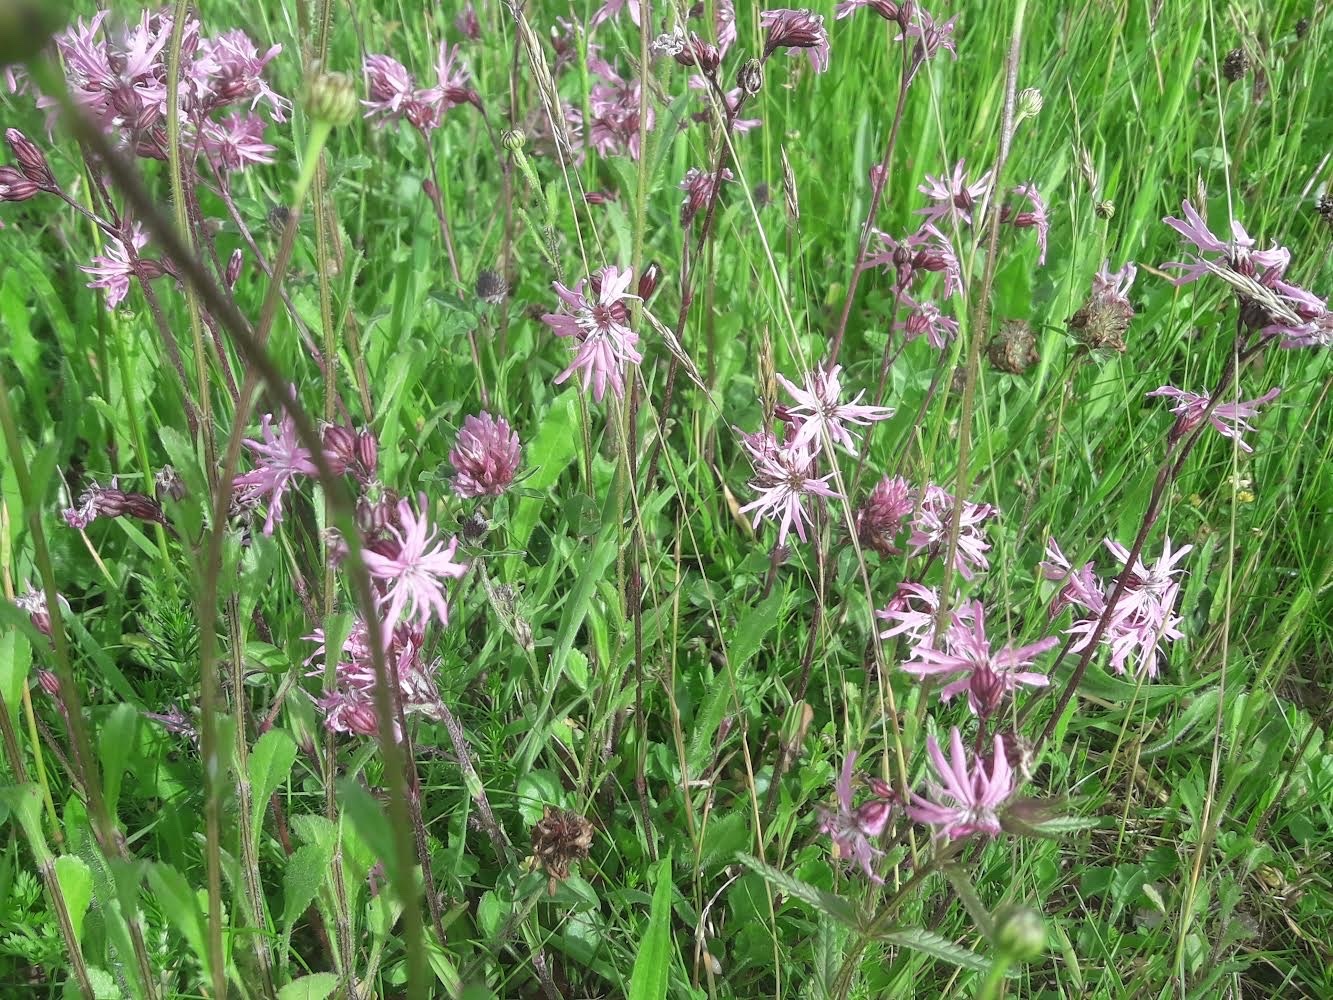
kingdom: Plantae
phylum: Tracheophyta
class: Magnoliopsida
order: Caryophyllales
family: Caryophyllaceae
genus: Silene
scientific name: Silene flos-cuculi
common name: Ragged-robin
